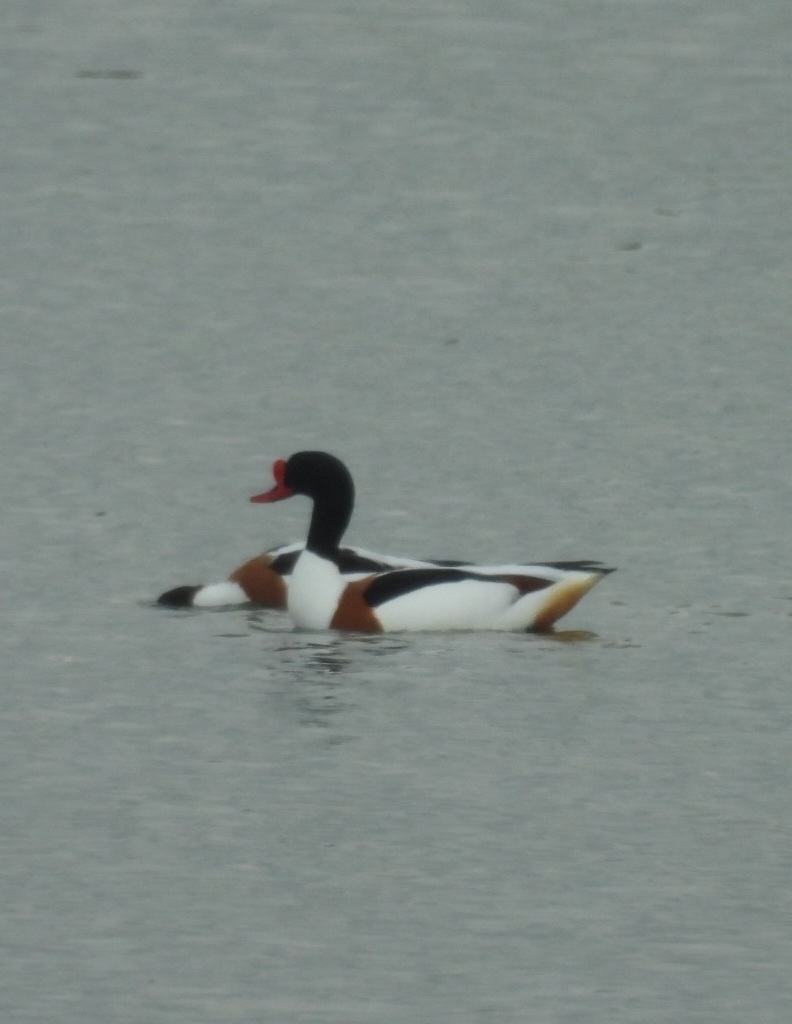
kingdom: Animalia
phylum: Chordata
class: Aves
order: Anseriformes
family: Anatidae
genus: Tadorna
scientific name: Tadorna tadorna
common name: Common shelduck
